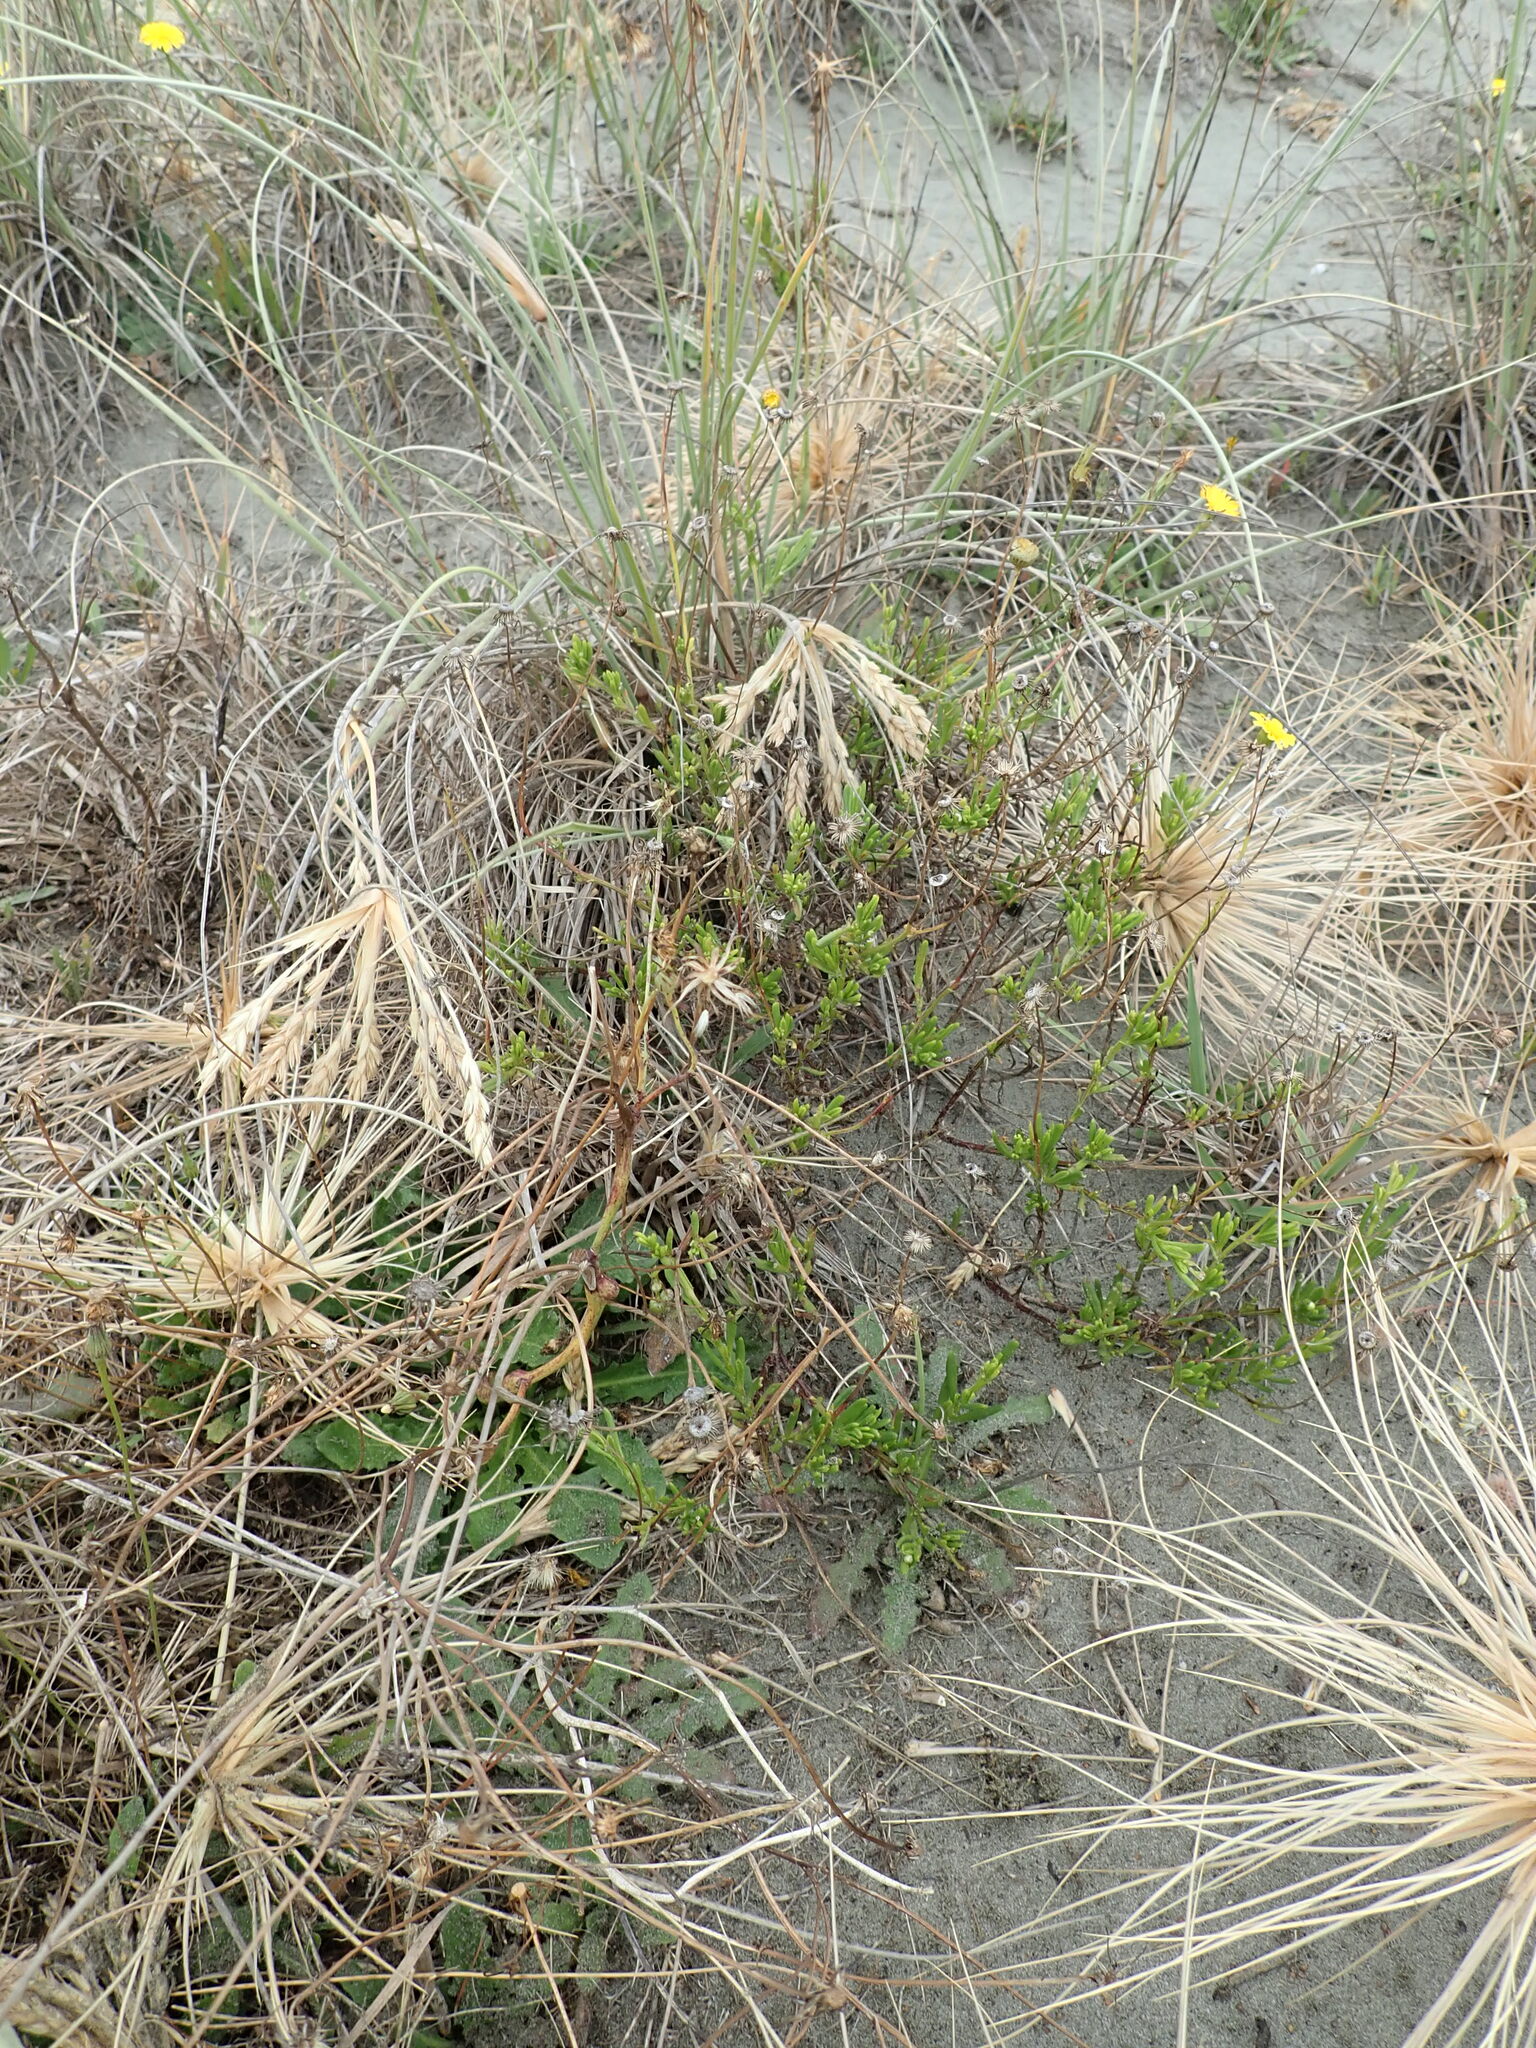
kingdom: Plantae
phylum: Tracheophyta
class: Magnoliopsida
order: Asterales
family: Asteraceae
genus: Senecio
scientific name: Senecio skirrhodon
